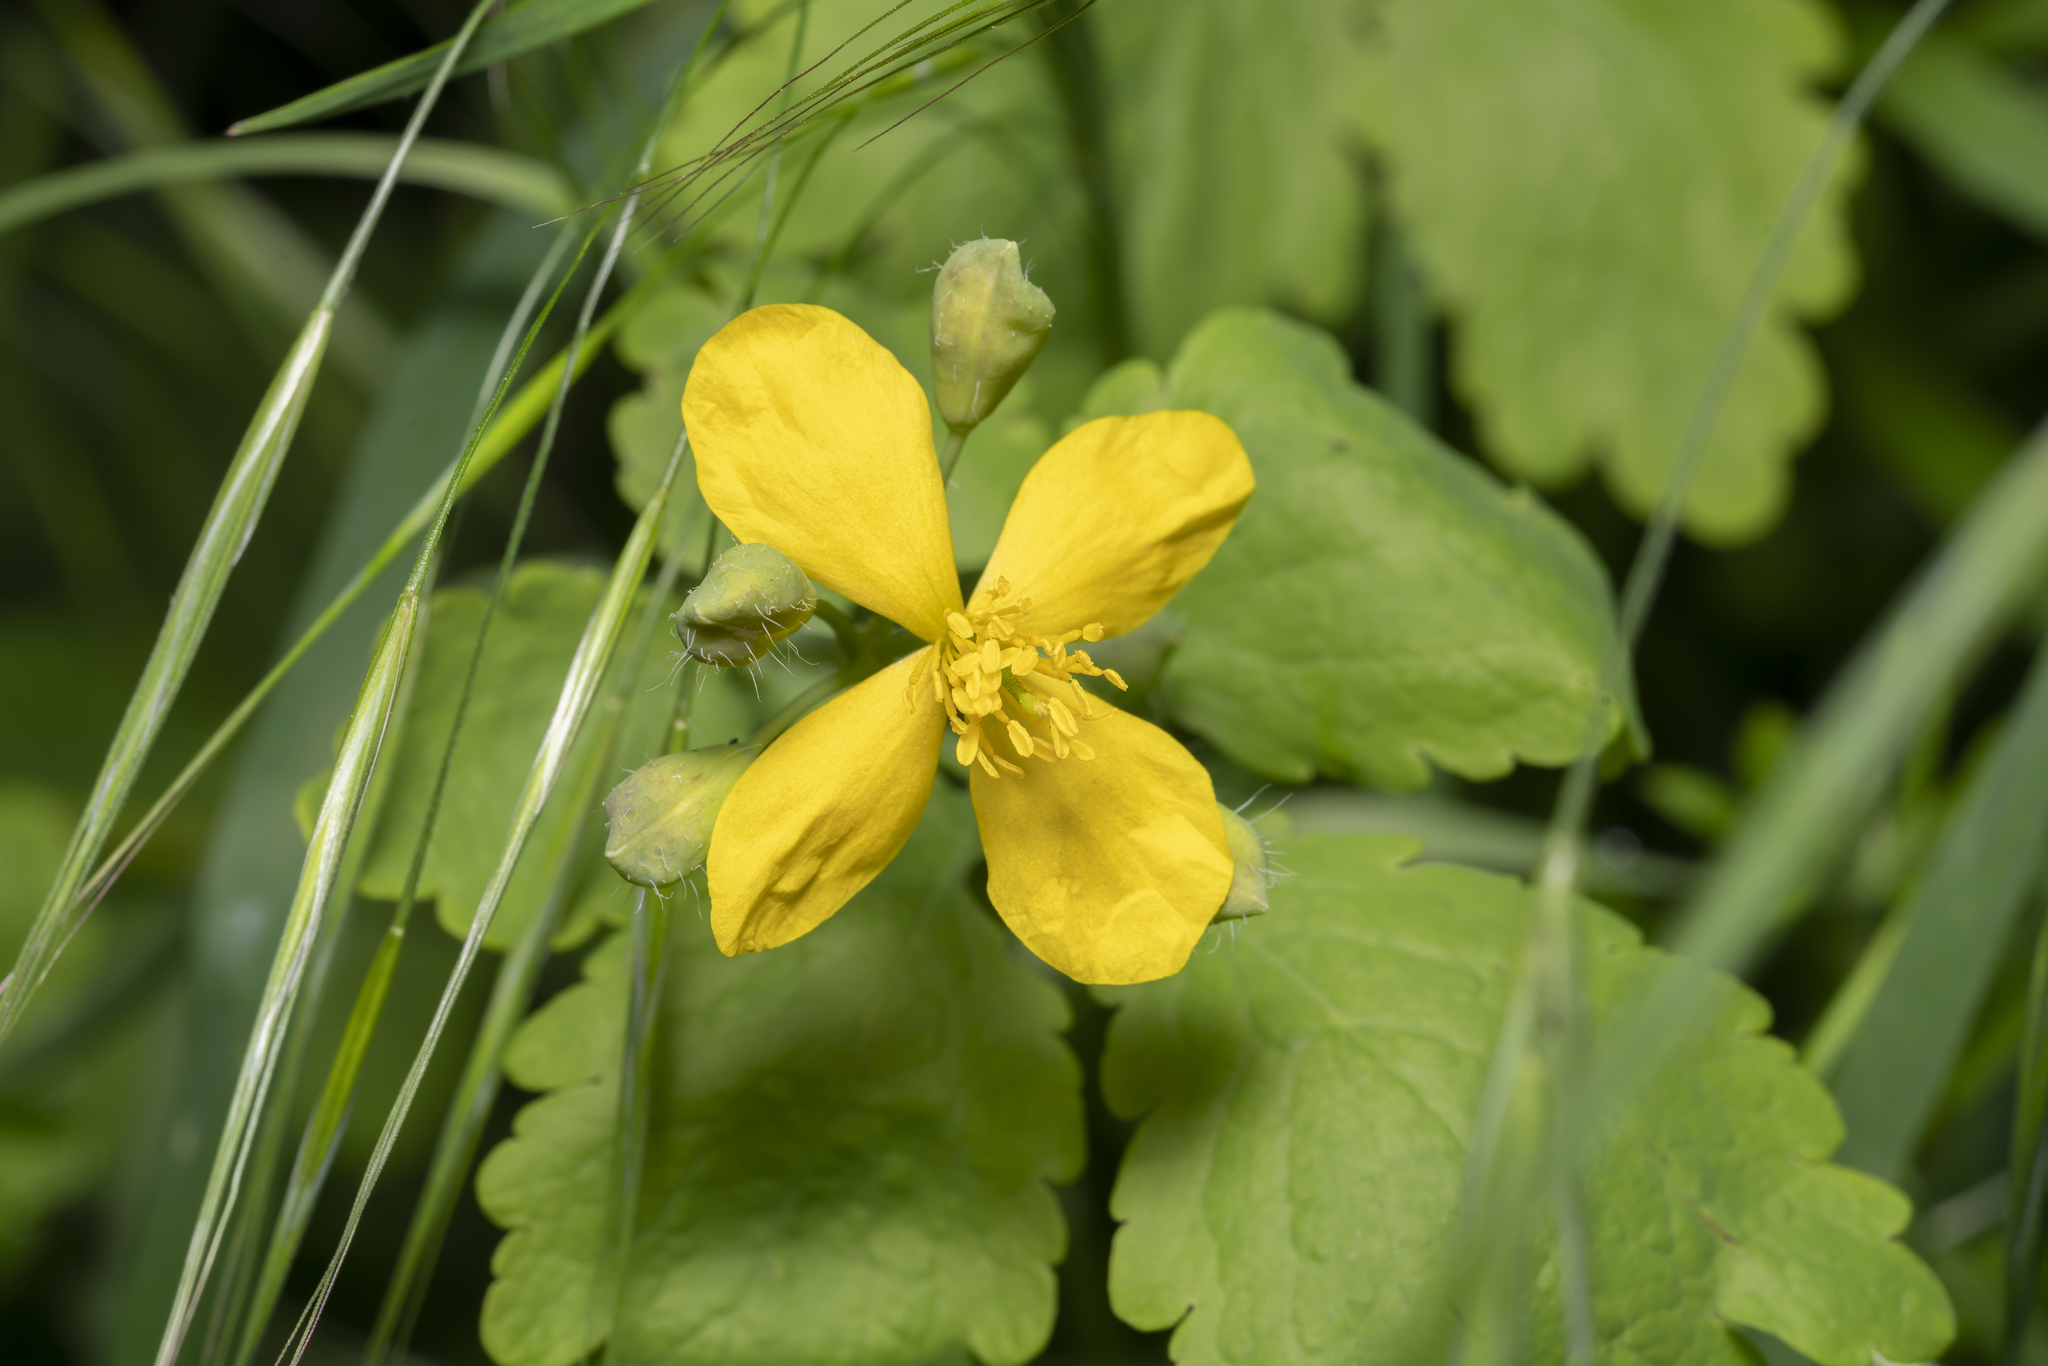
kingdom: Plantae
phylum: Tracheophyta
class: Magnoliopsida
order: Ranunculales
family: Papaveraceae
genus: Chelidonium
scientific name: Chelidonium majus
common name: Greater celandine
